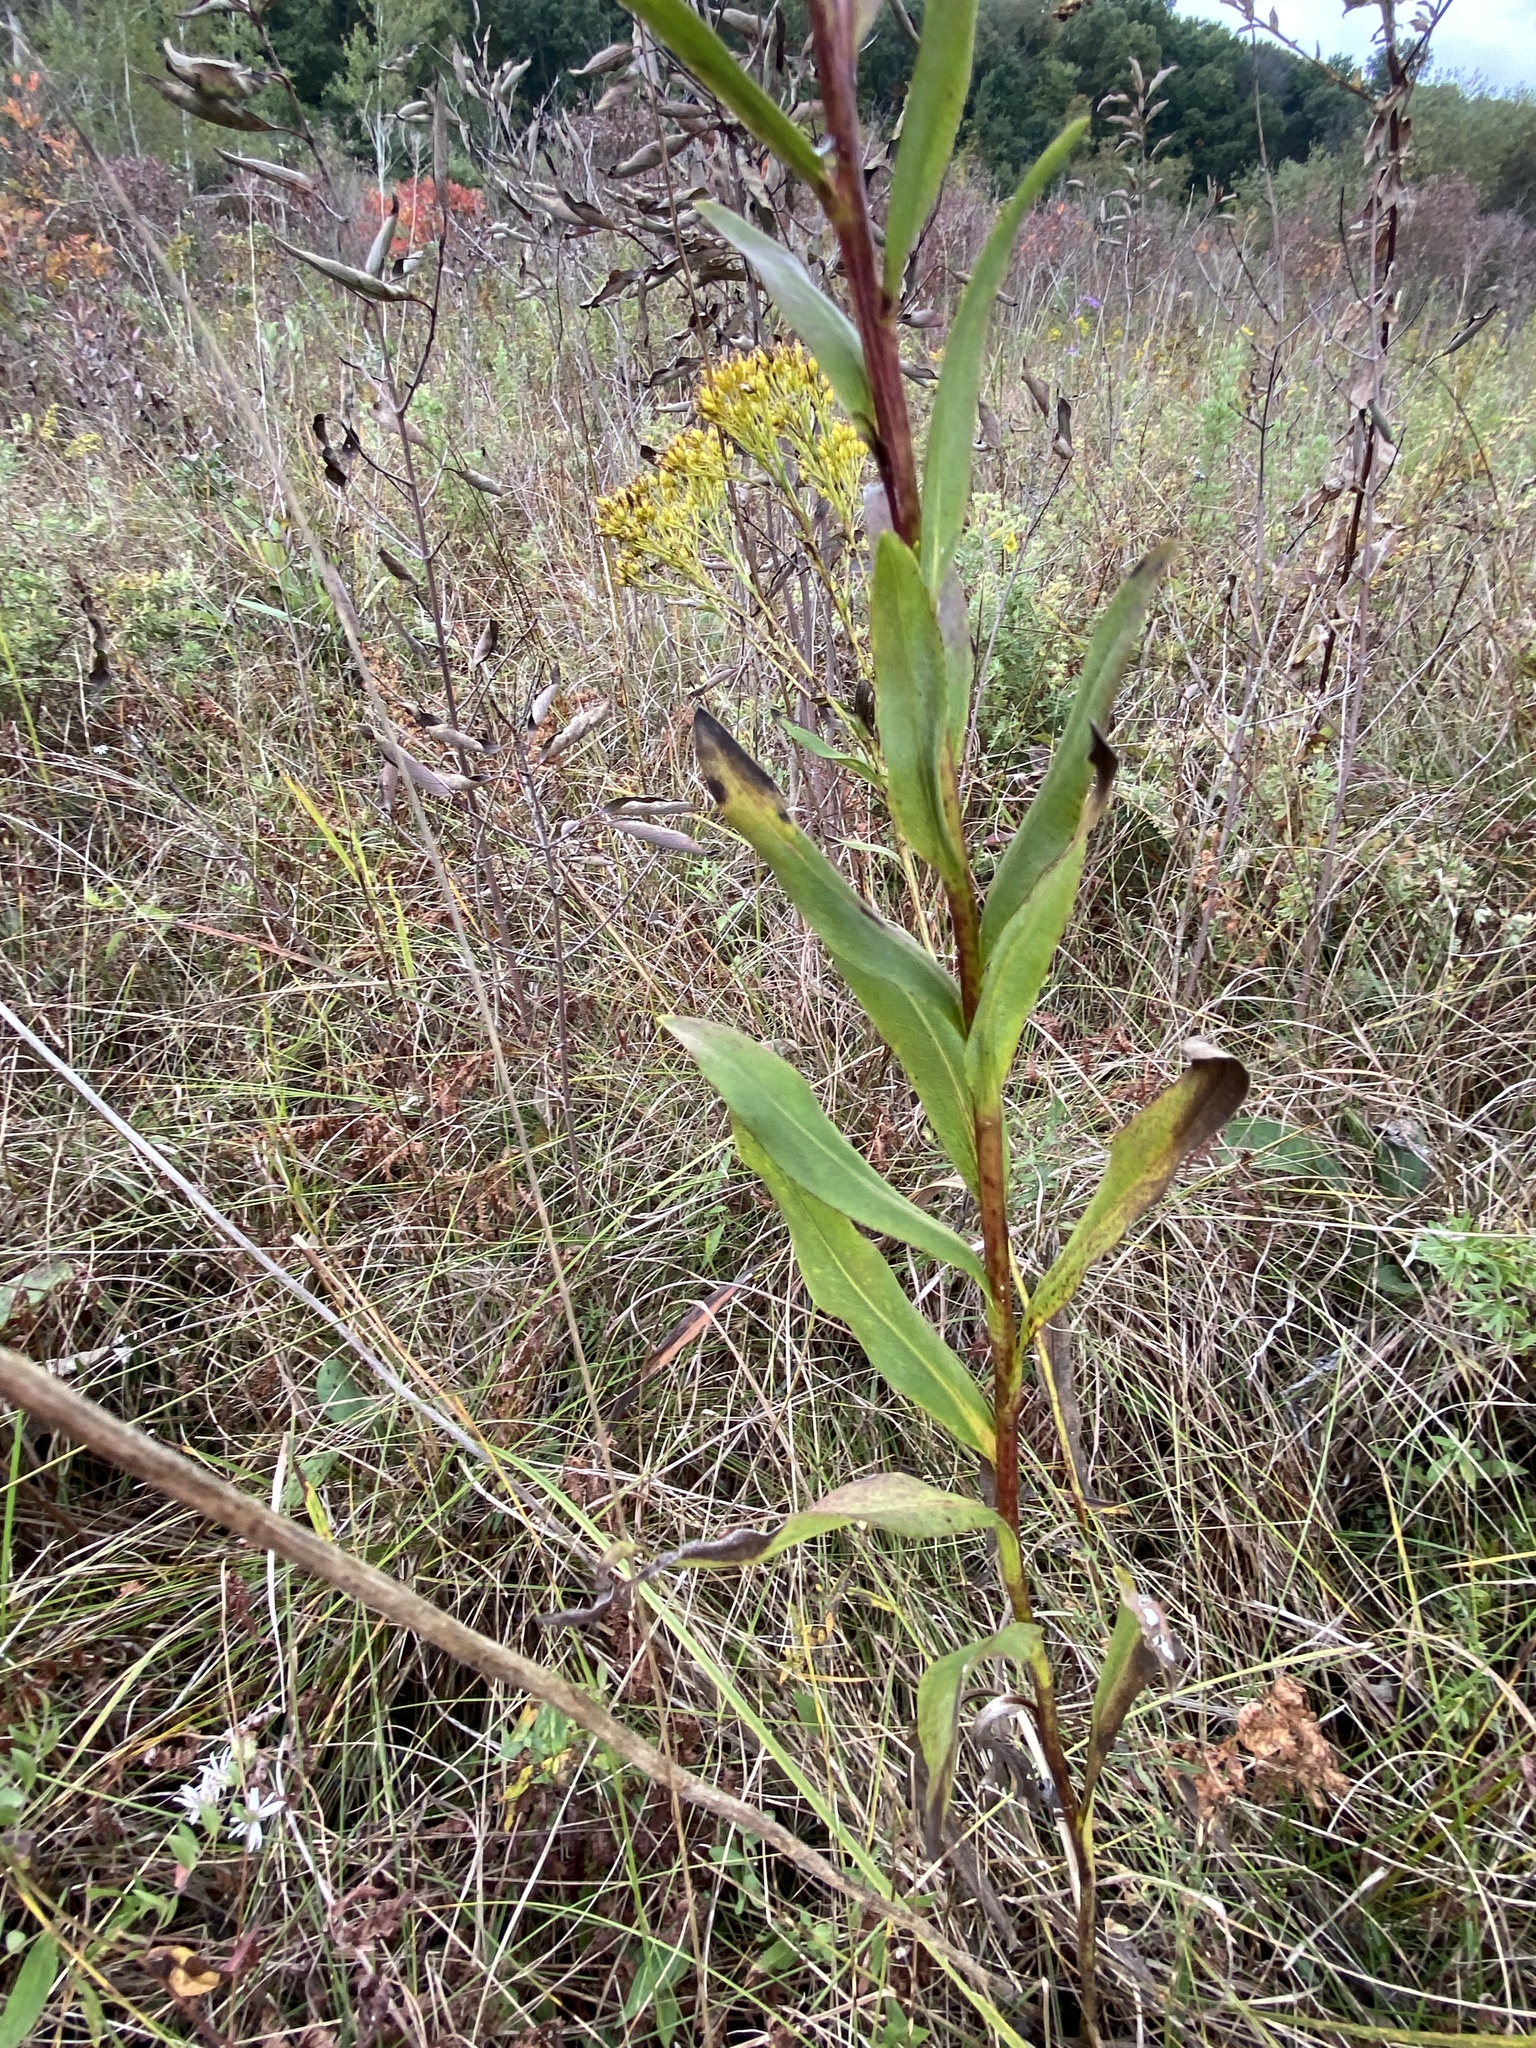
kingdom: Plantae
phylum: Tracheophyta
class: Magnoliopsida
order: Asterales
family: Asteraceae
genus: Solidago
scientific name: Solidago ohioensis
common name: Ohio goldenrod
